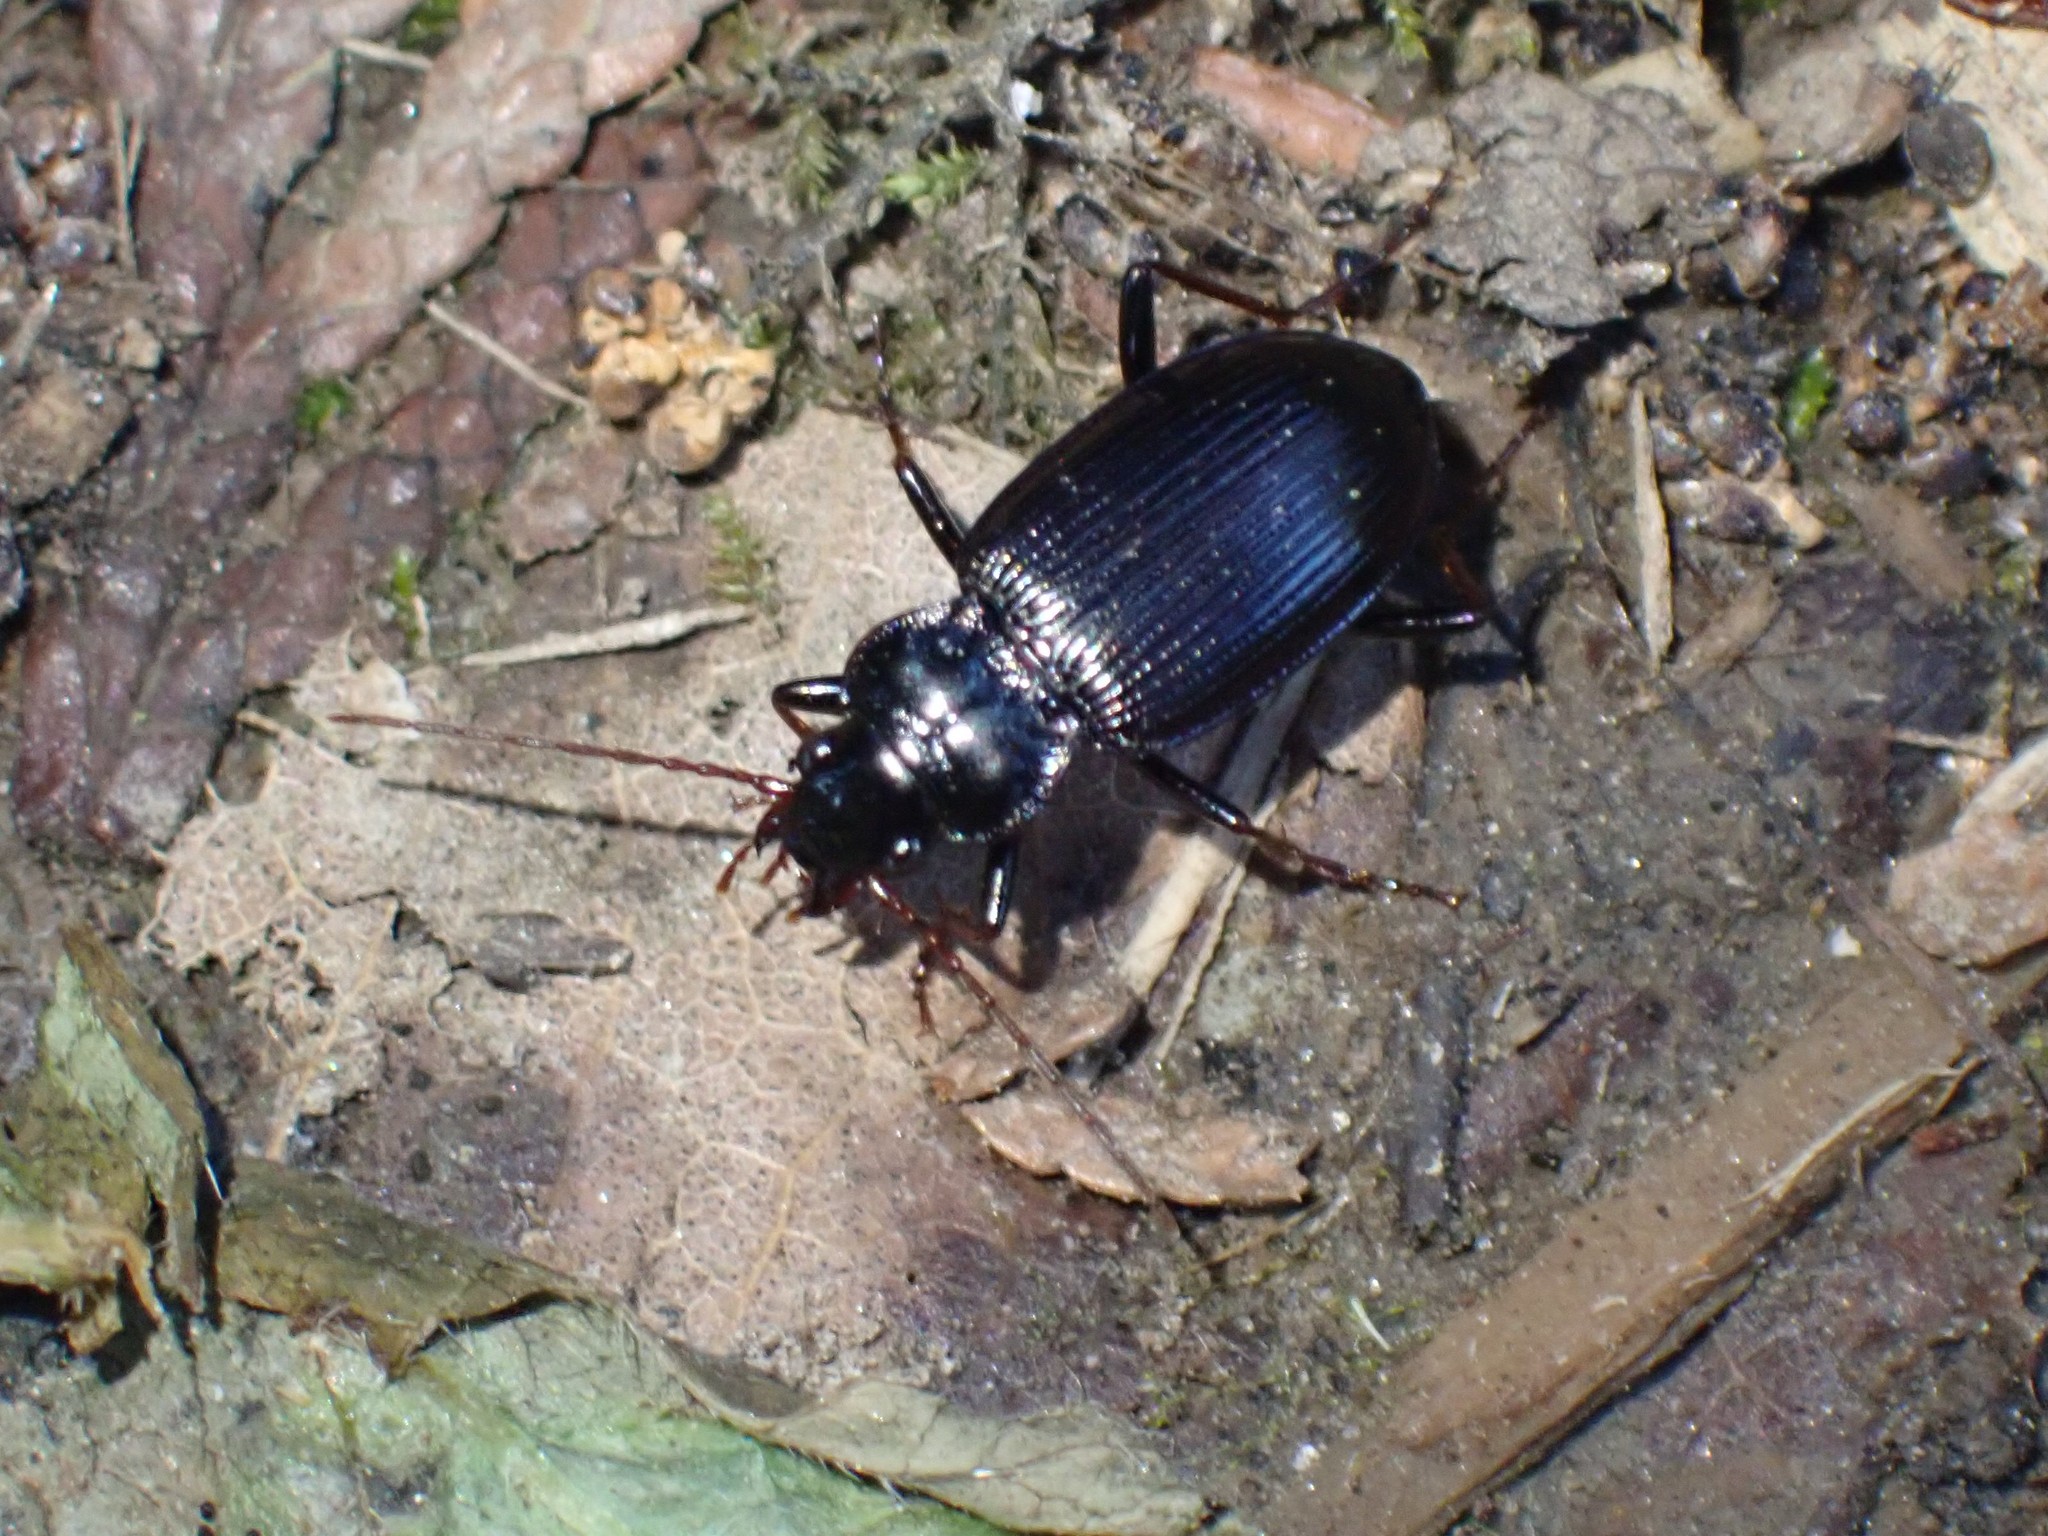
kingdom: Animalia
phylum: Arthropoda
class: Insecta
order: Coleoptera
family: Carabidae
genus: Nebria
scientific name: Nebria brevicollis
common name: Short-necked gazelle beetle
